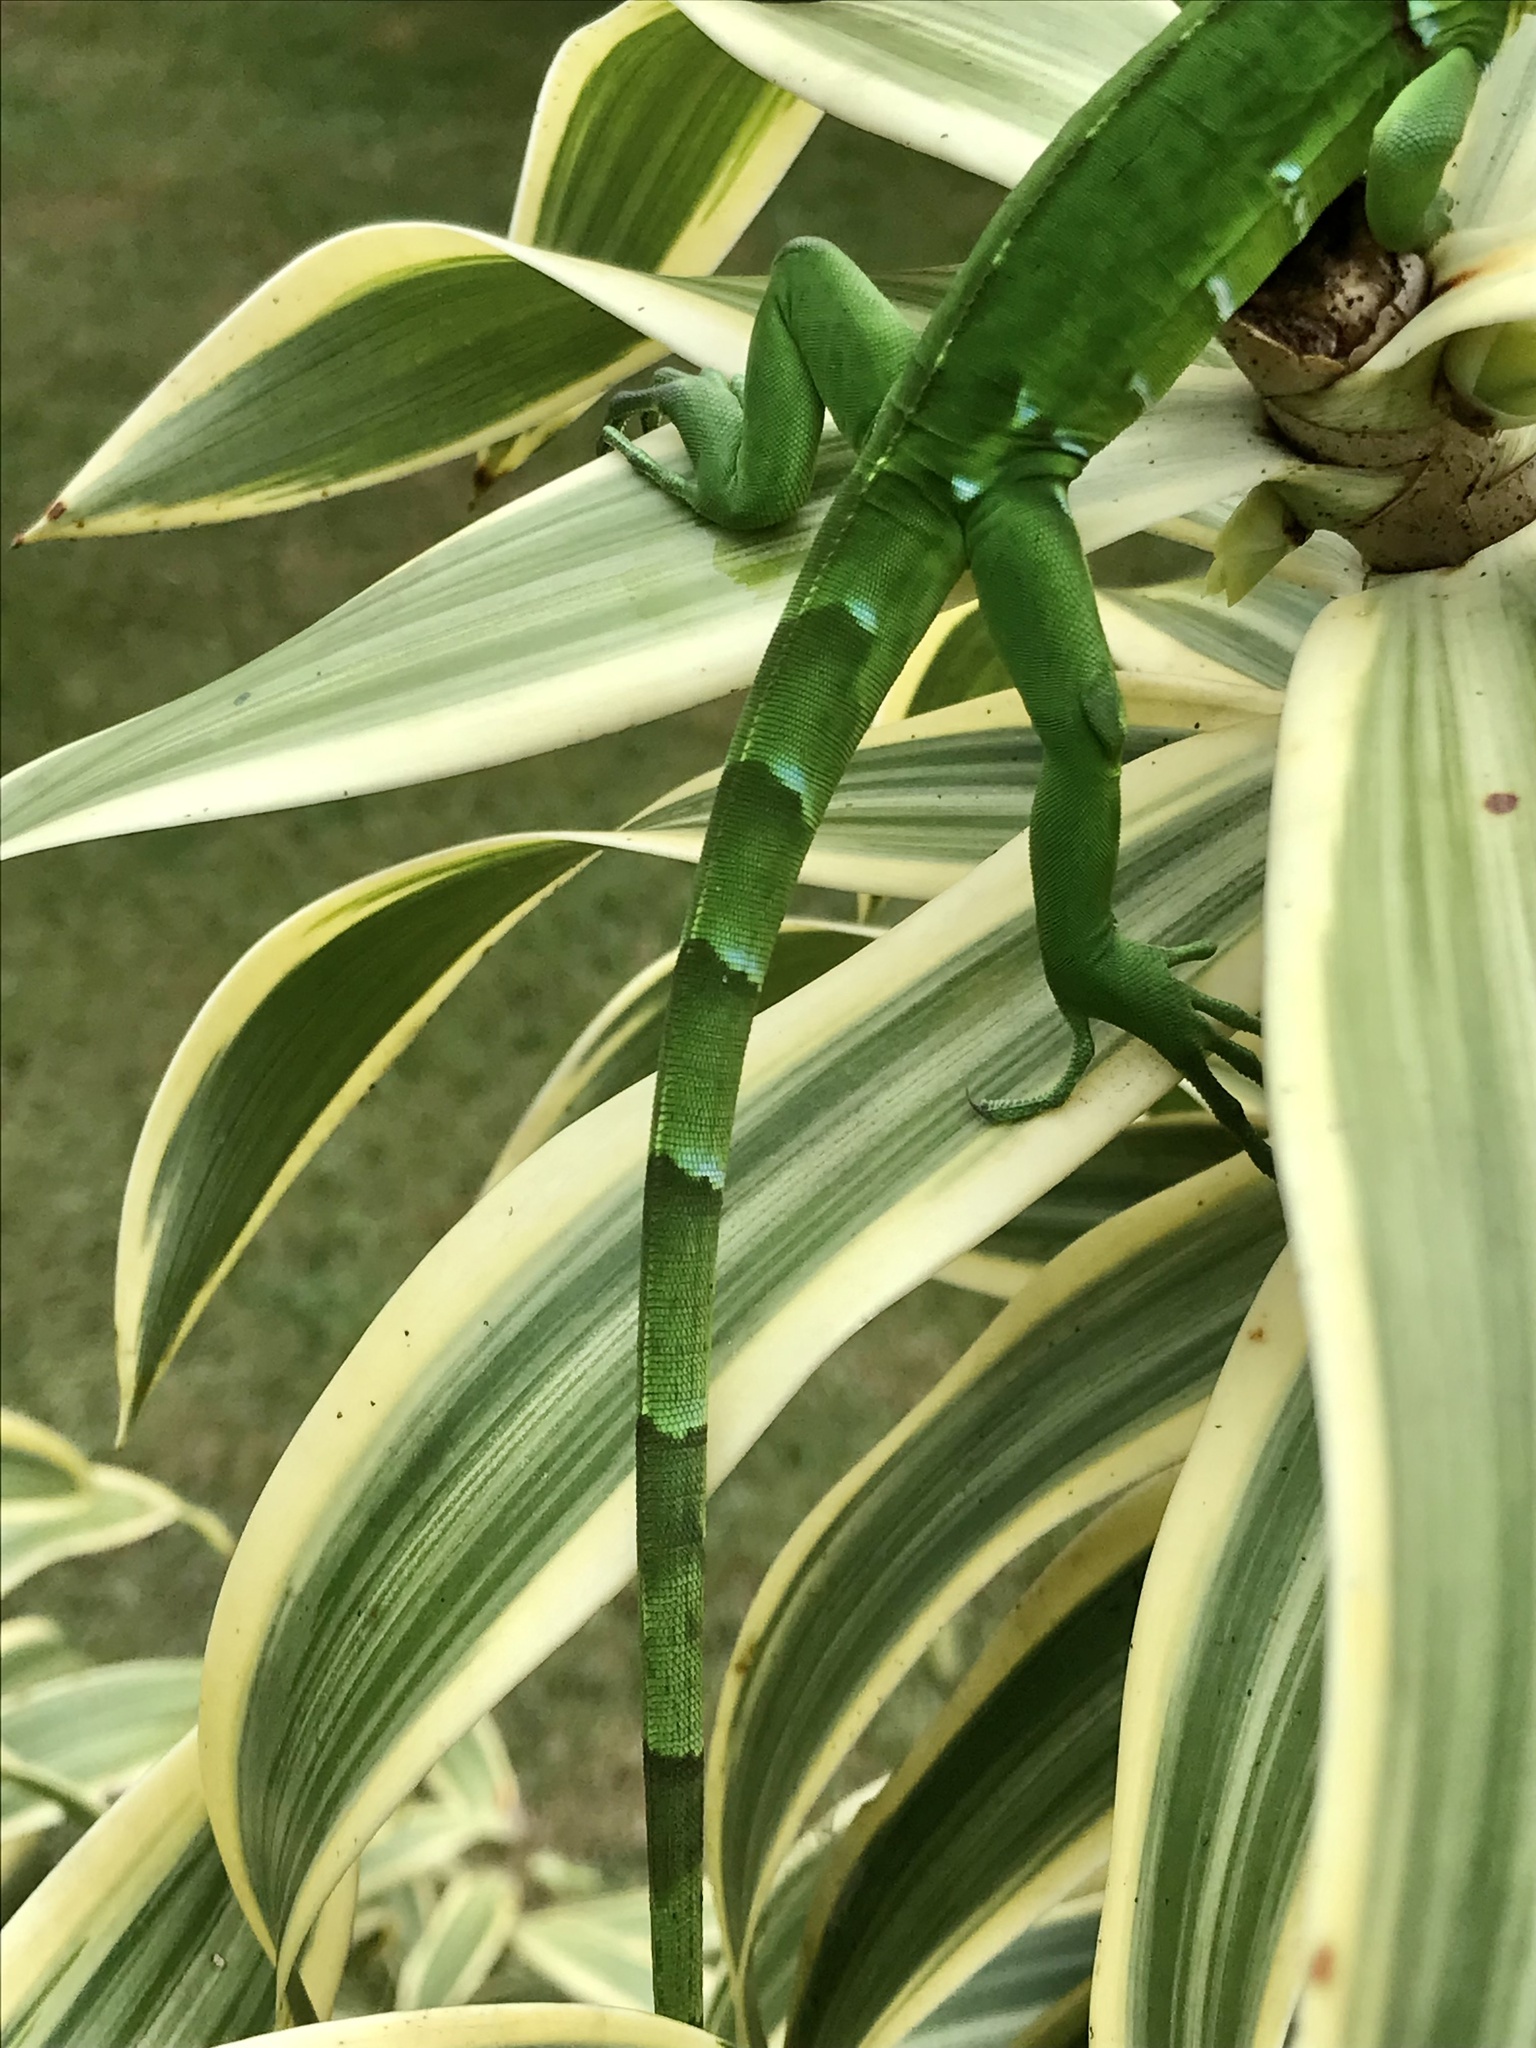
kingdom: Animalia
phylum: Chordata
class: Squamata
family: Iguanidae
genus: Iguana
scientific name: Iguana iguana
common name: Green iguana
